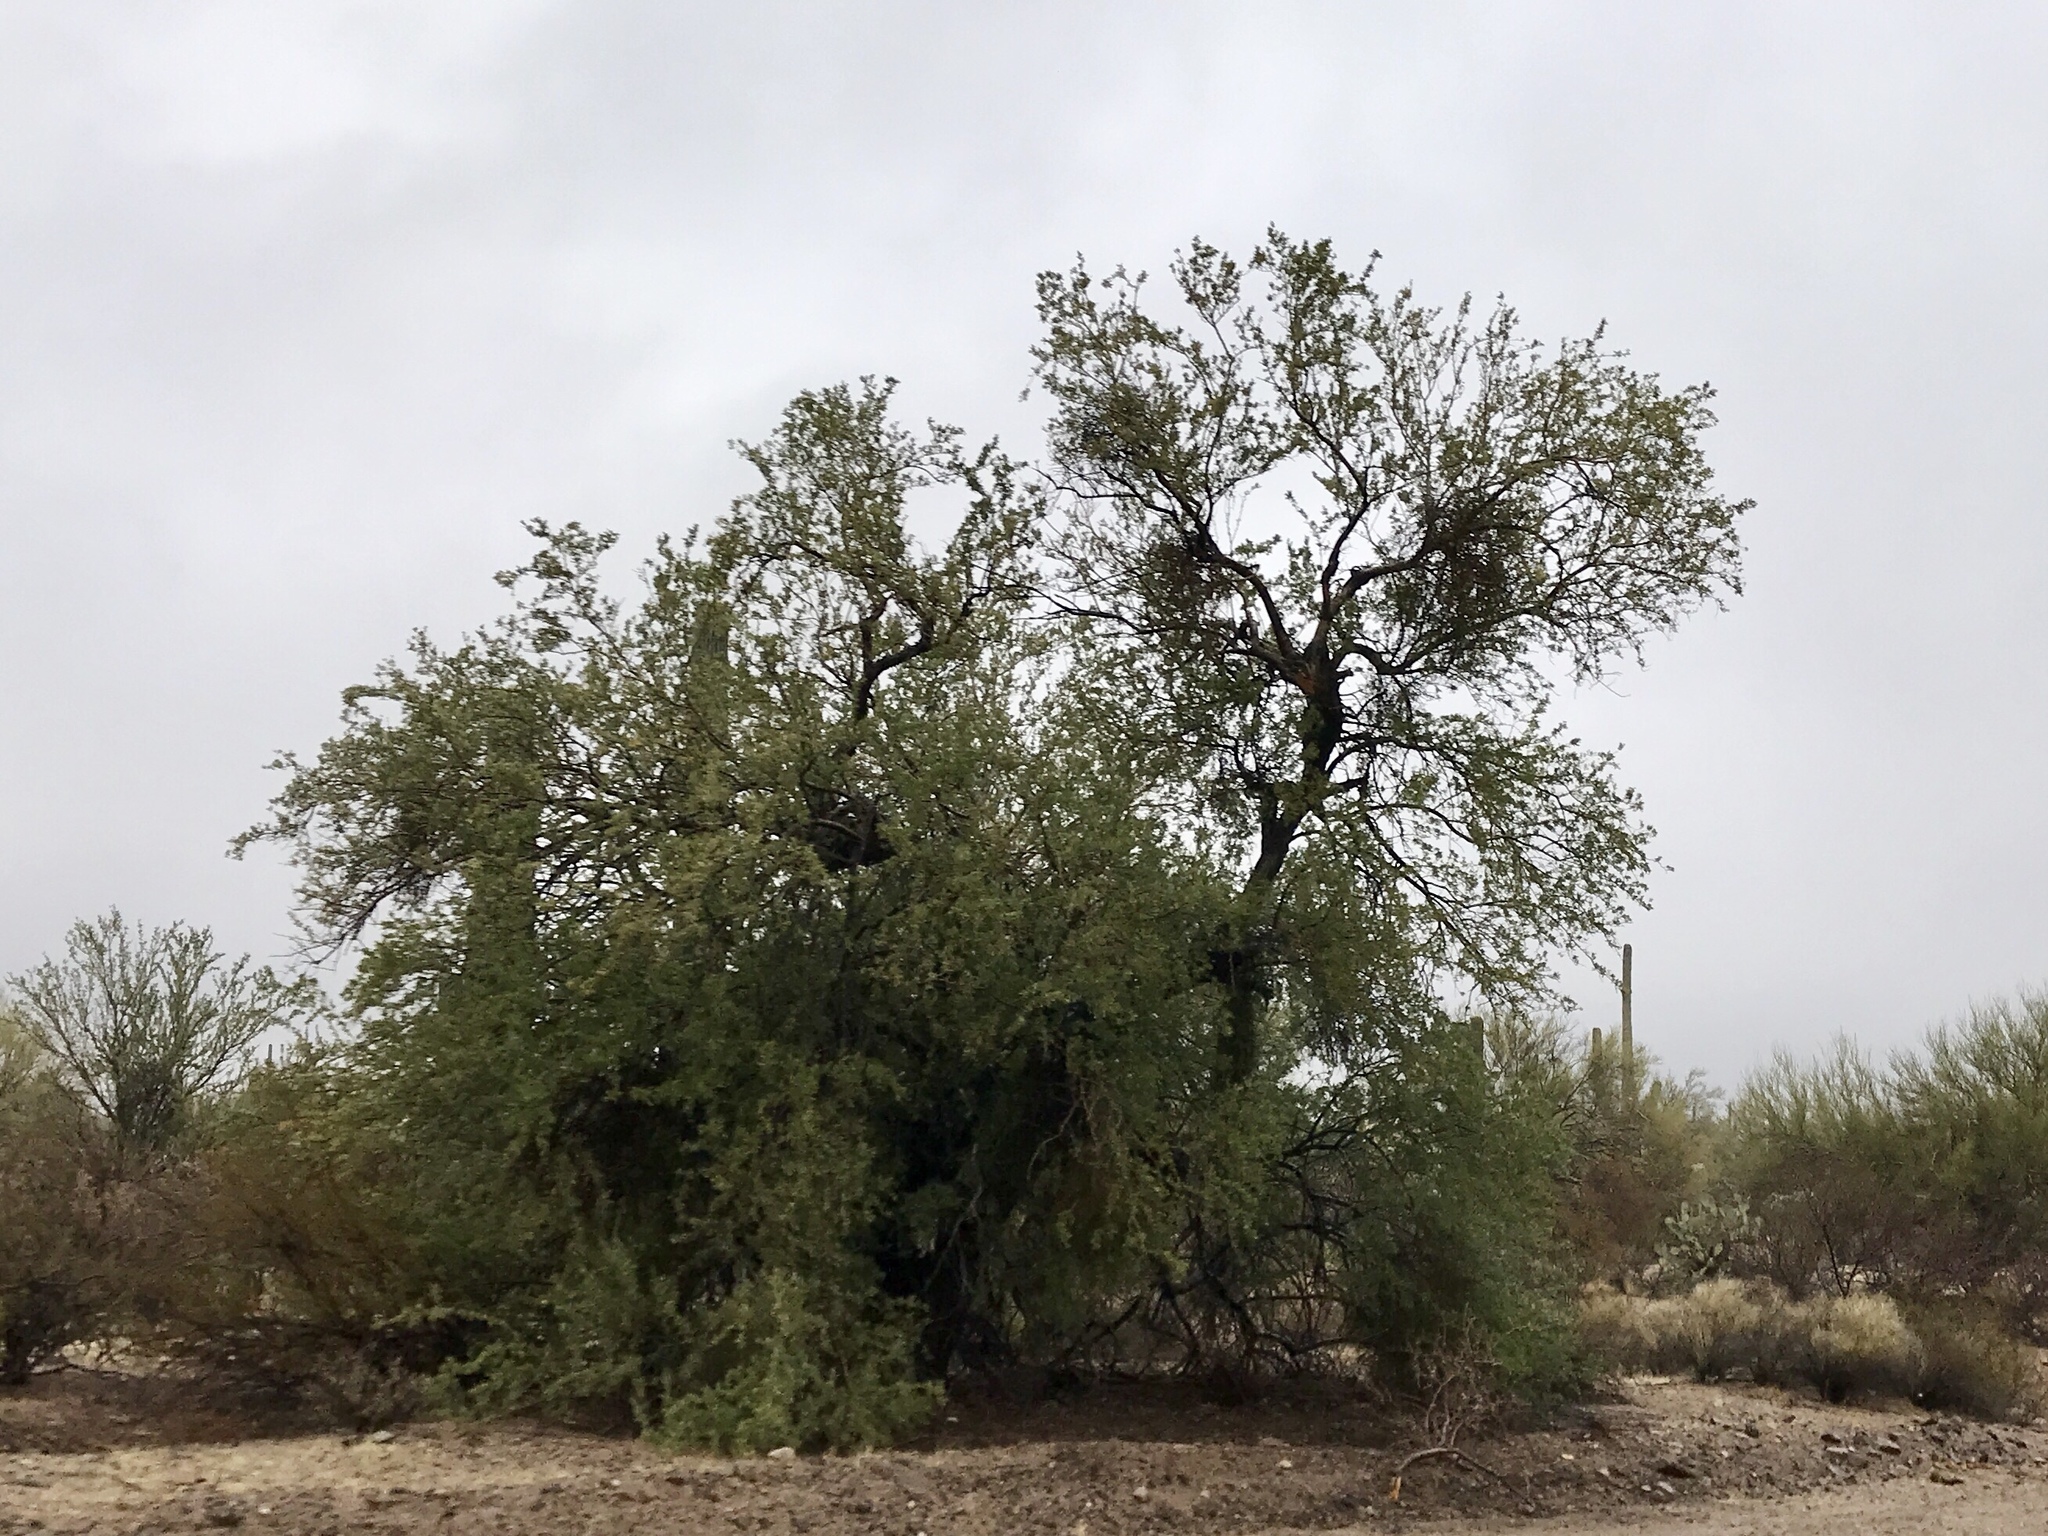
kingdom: Plantae
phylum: Tracheophyta
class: Magnoliopsida
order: Fabales
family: Fabaceae
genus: Olneya
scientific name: Olneya tesota
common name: Desert ironwood
